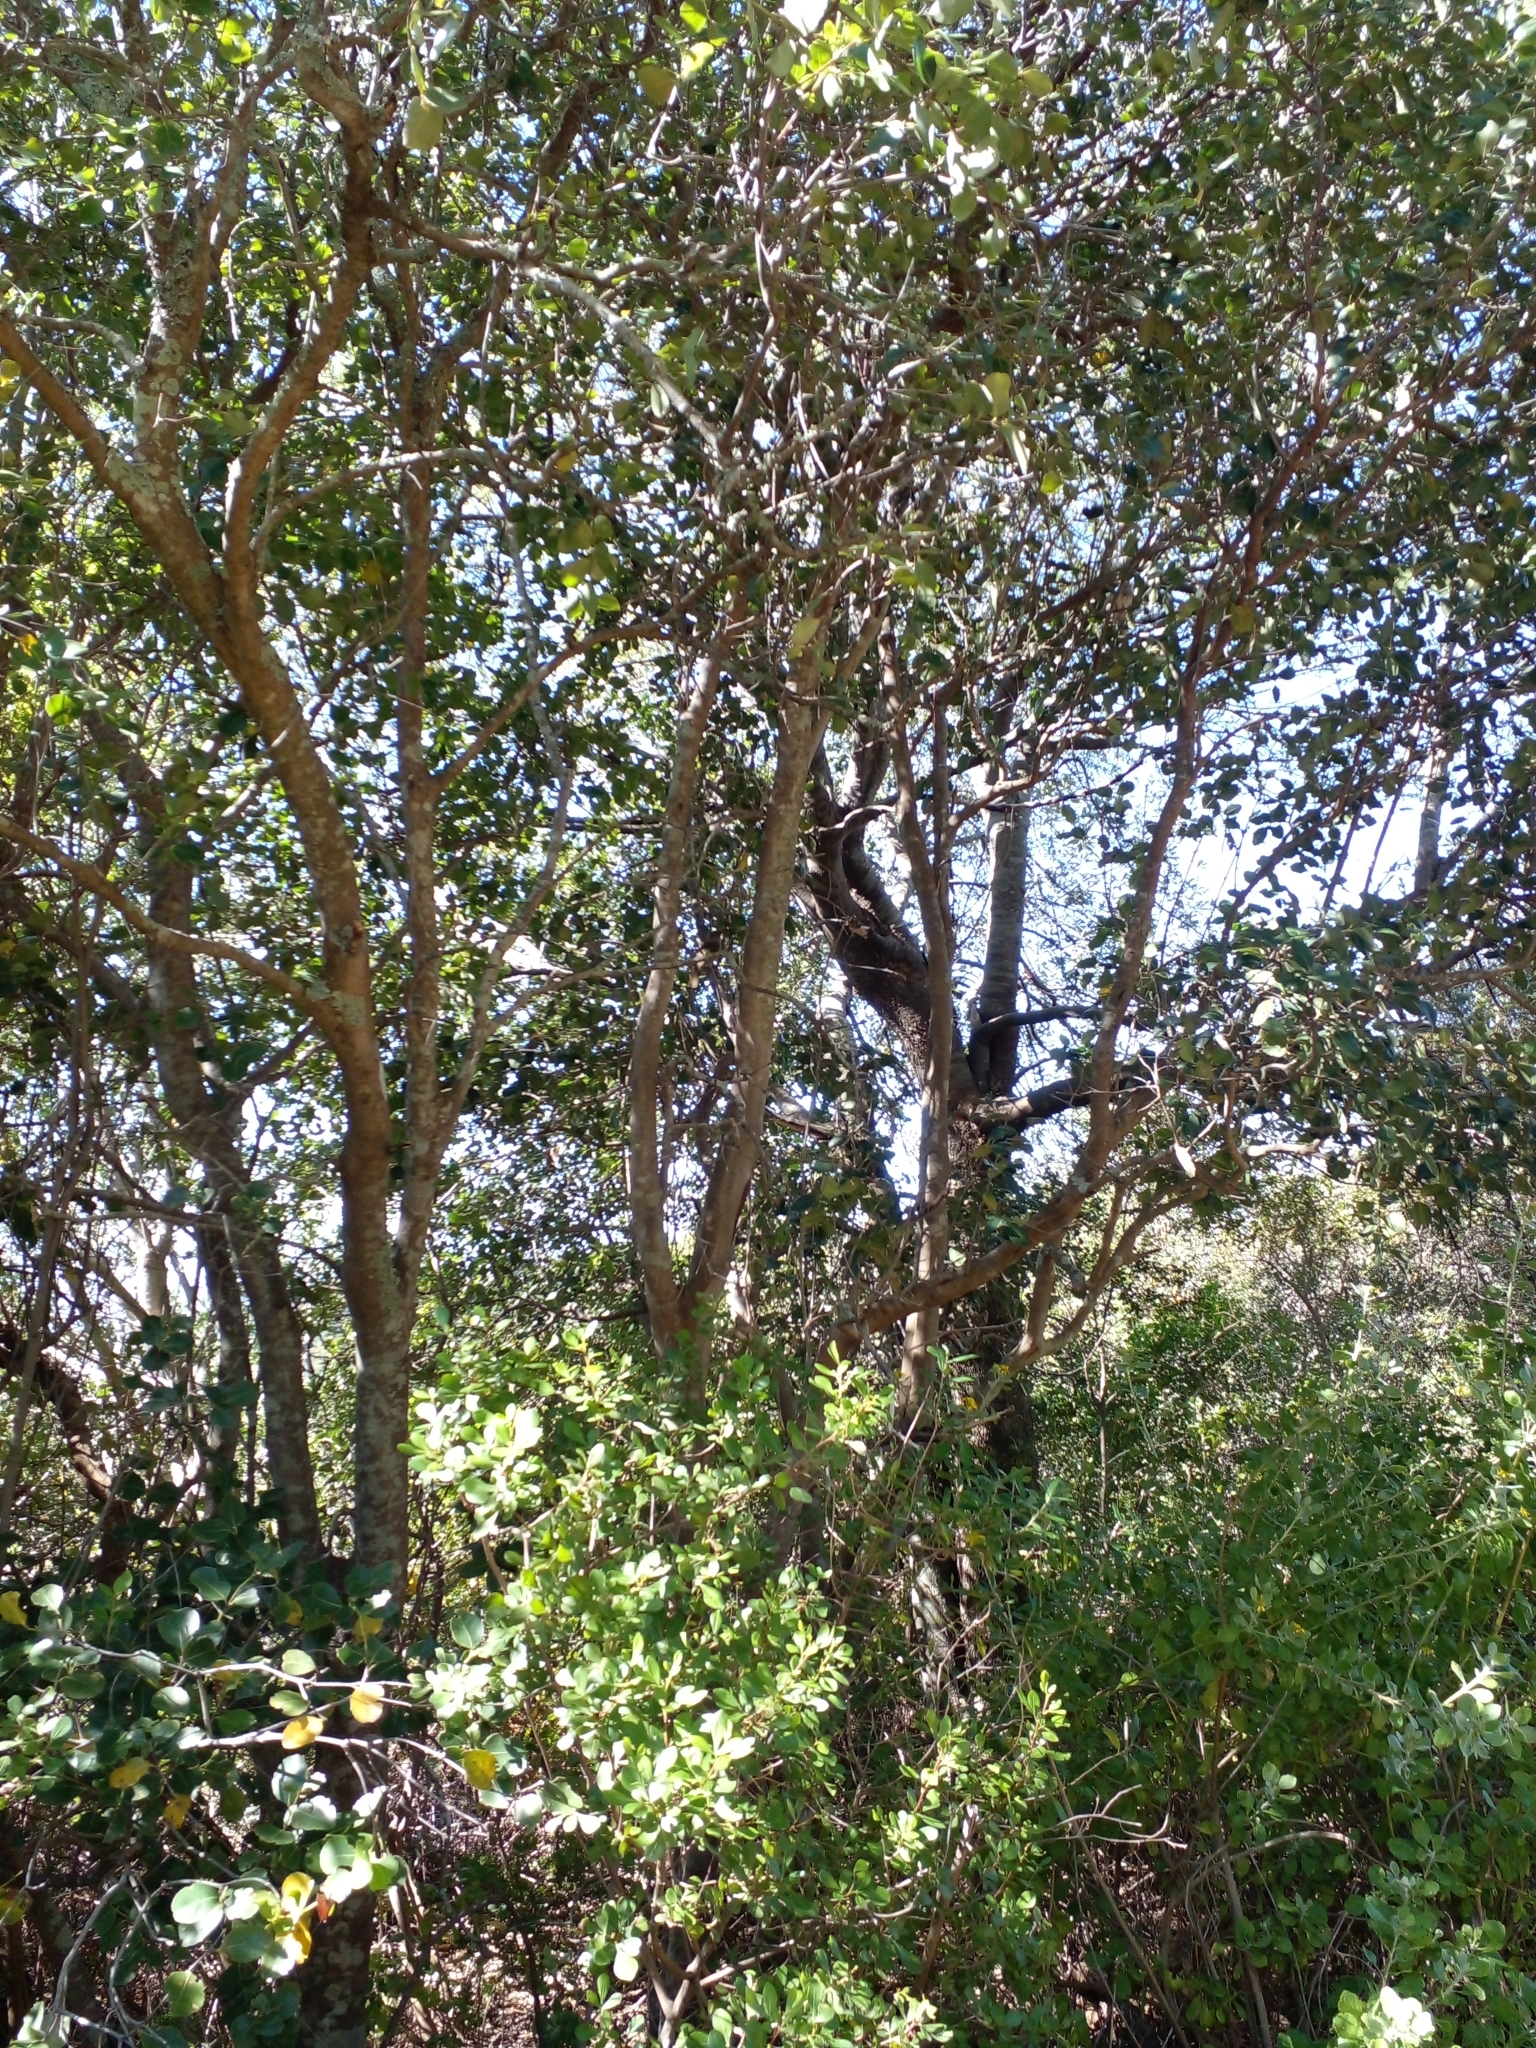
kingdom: Animalia
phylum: Chordata
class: Aves
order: Passeriformes
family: Pycnonotidae
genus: Andropadus
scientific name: Andropadus importunus
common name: Sombre greenbul
